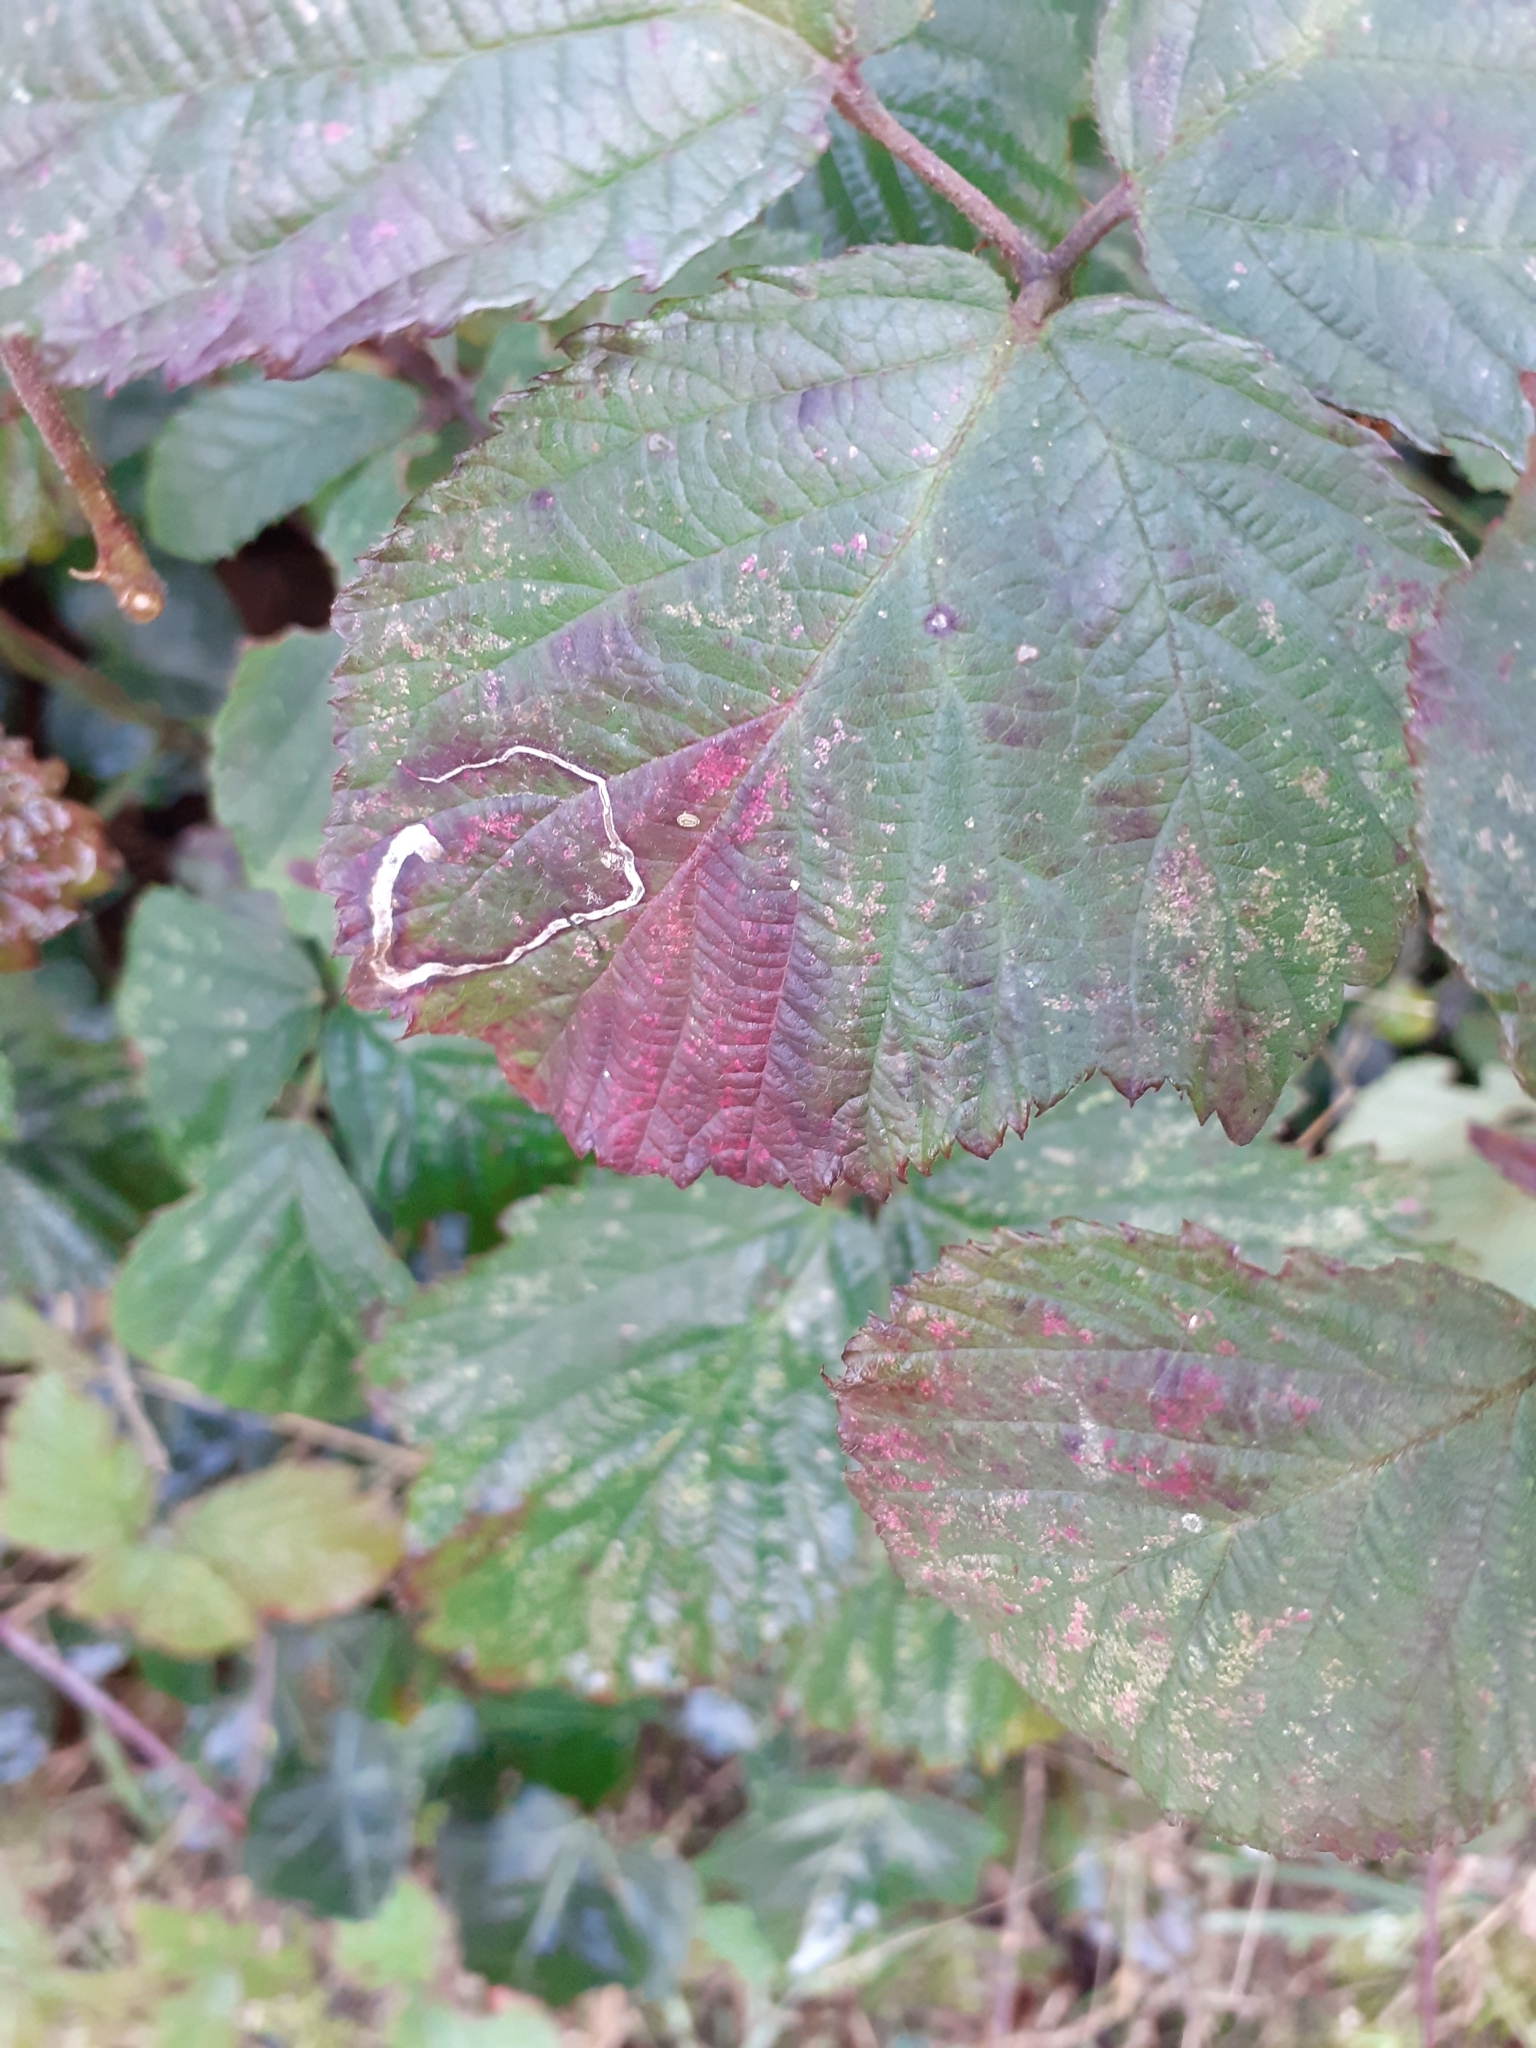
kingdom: Animalia
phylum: Arthropoda
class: Insecta
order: Lepidoptera
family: Nepticulidae
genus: Stigmella
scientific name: Stigmella aurella
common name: Golden pigmy
